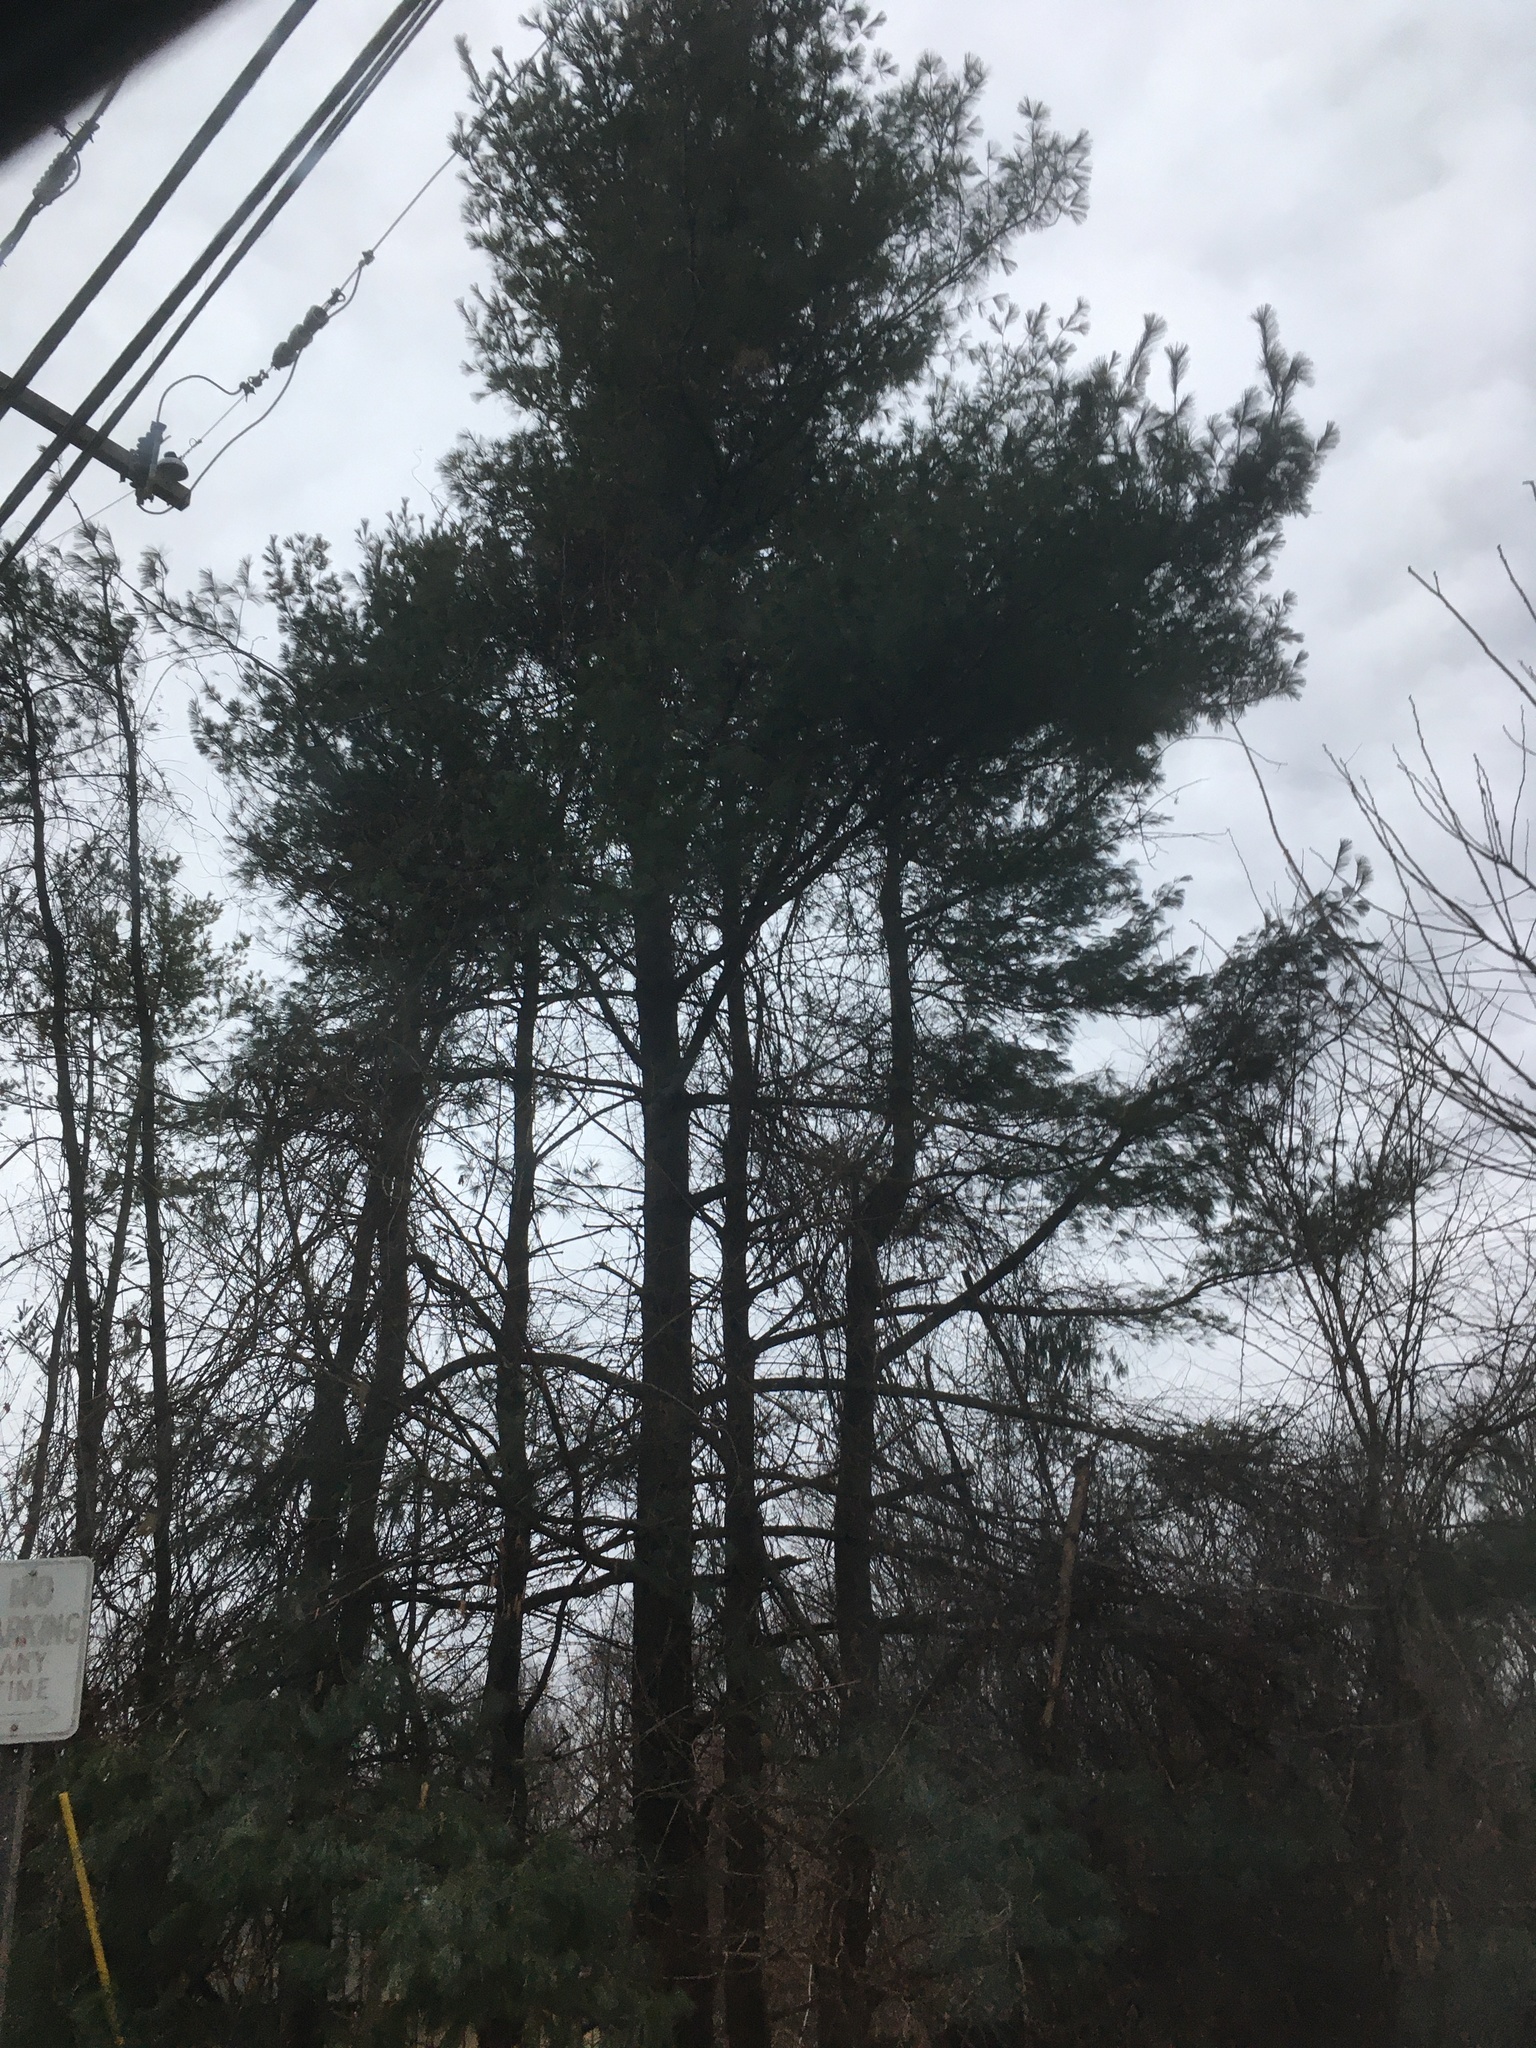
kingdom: Plantae
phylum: Tracheophyta
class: Pinopsida
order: Pinales
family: Pinaceae
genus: Pinus
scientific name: Pinus strobus
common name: Weymouth pine
